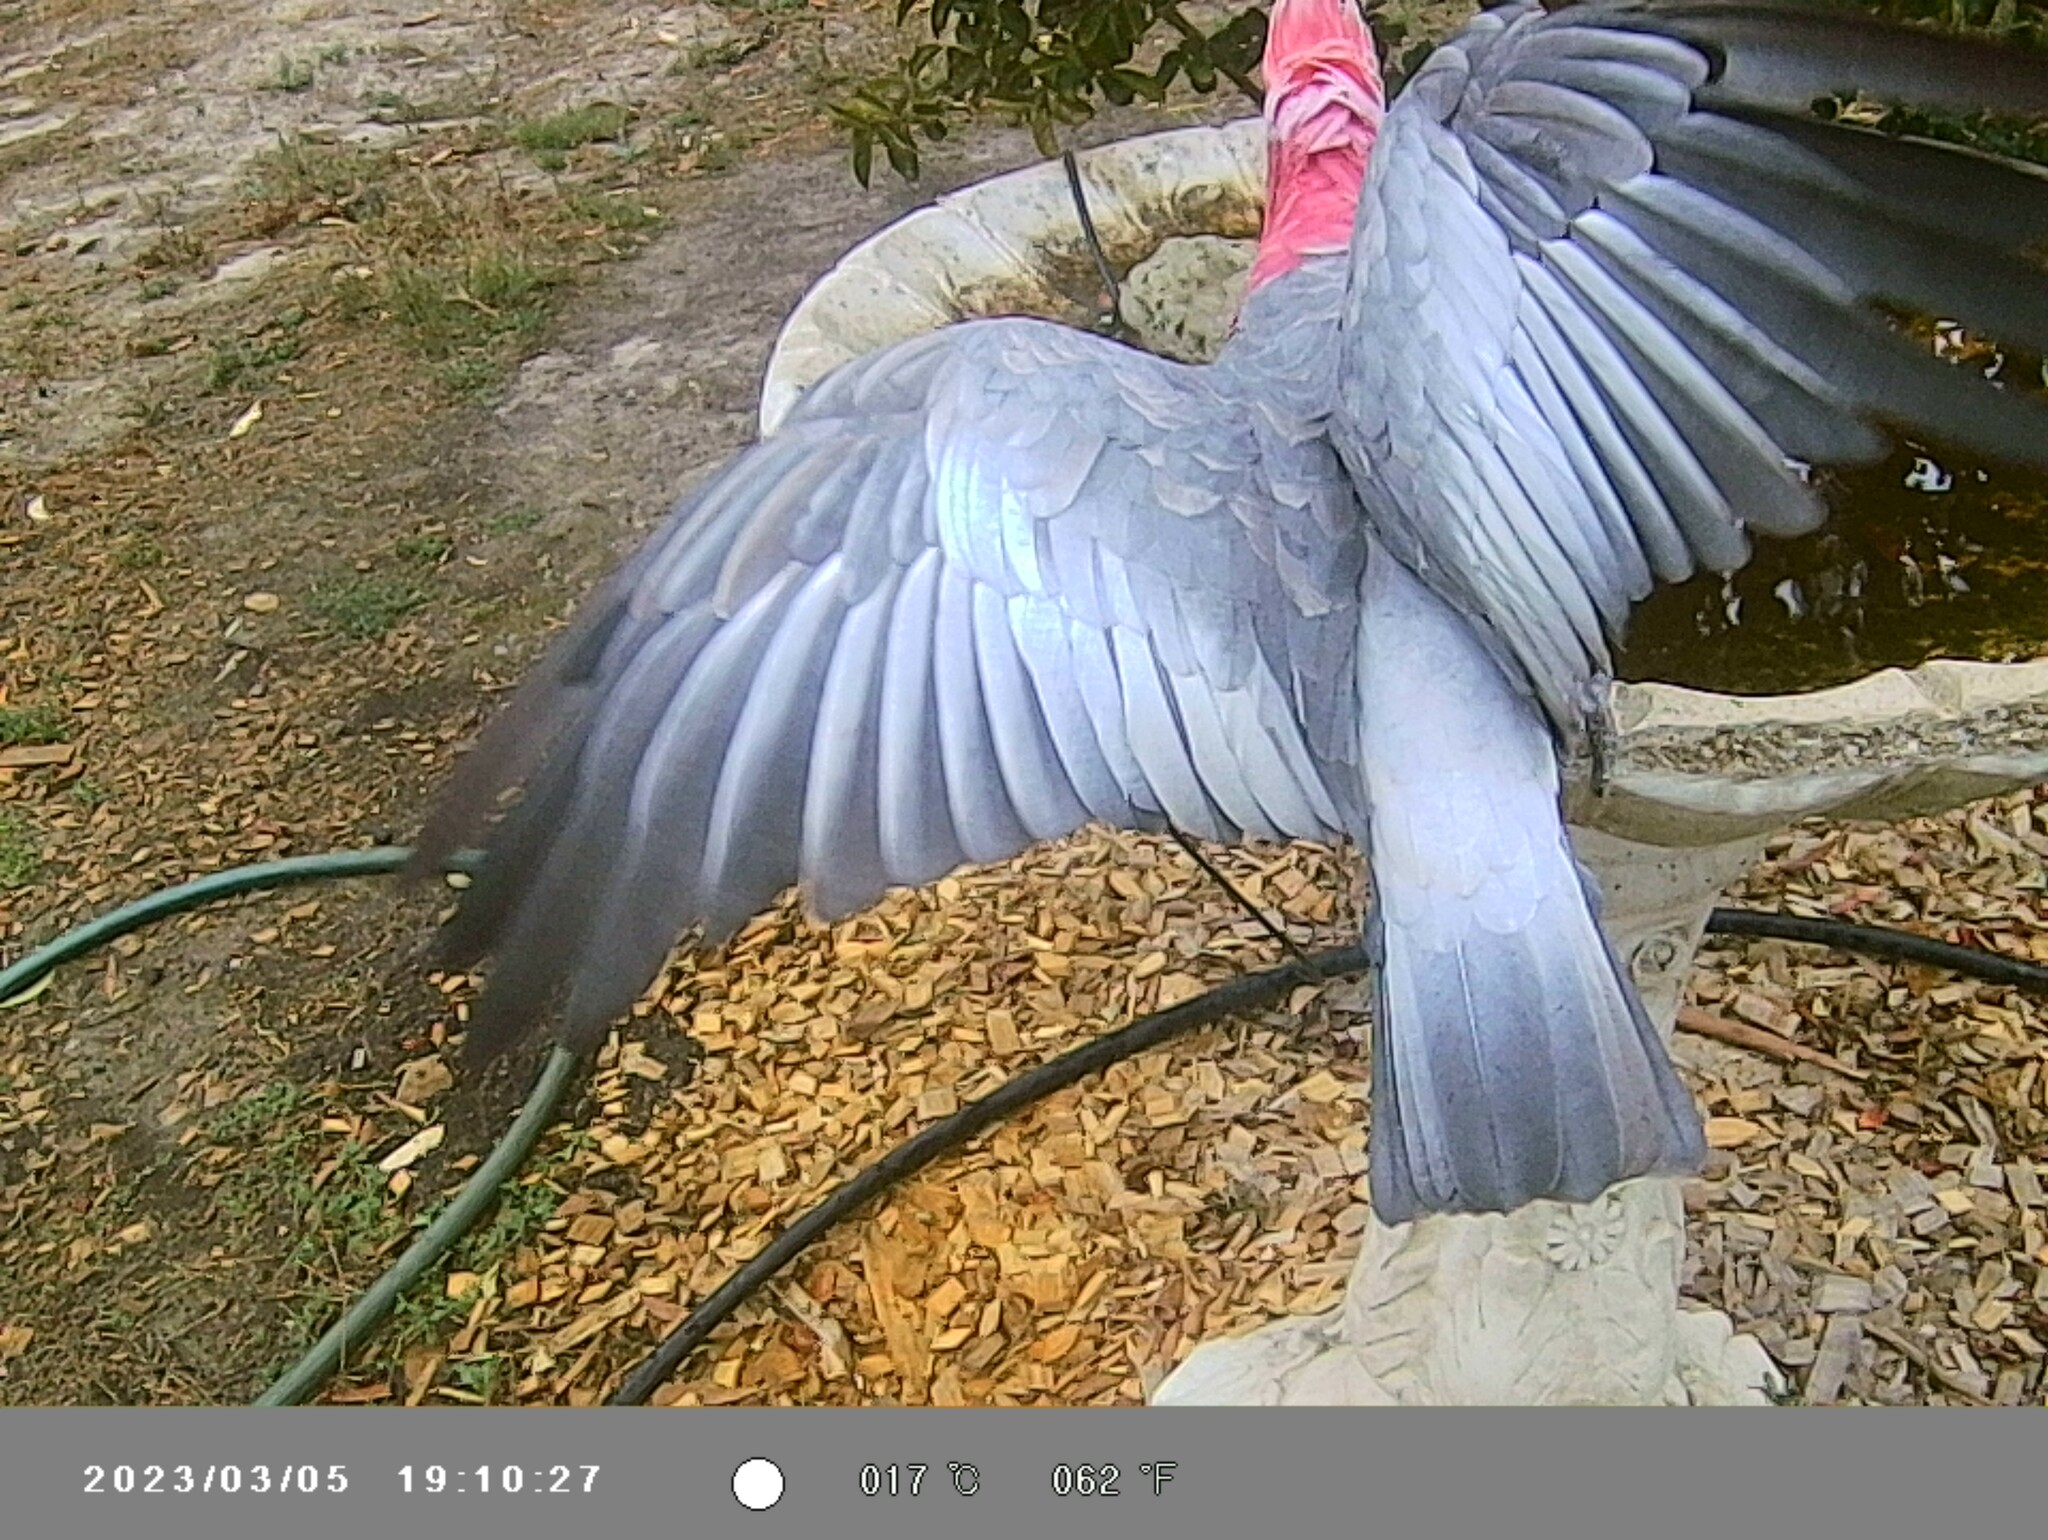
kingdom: Animalia
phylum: Chordata
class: Aves
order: Psittaciformes
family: Psittacidae
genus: Eolophus
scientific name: Eolophus roseicapilla
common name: Galah
